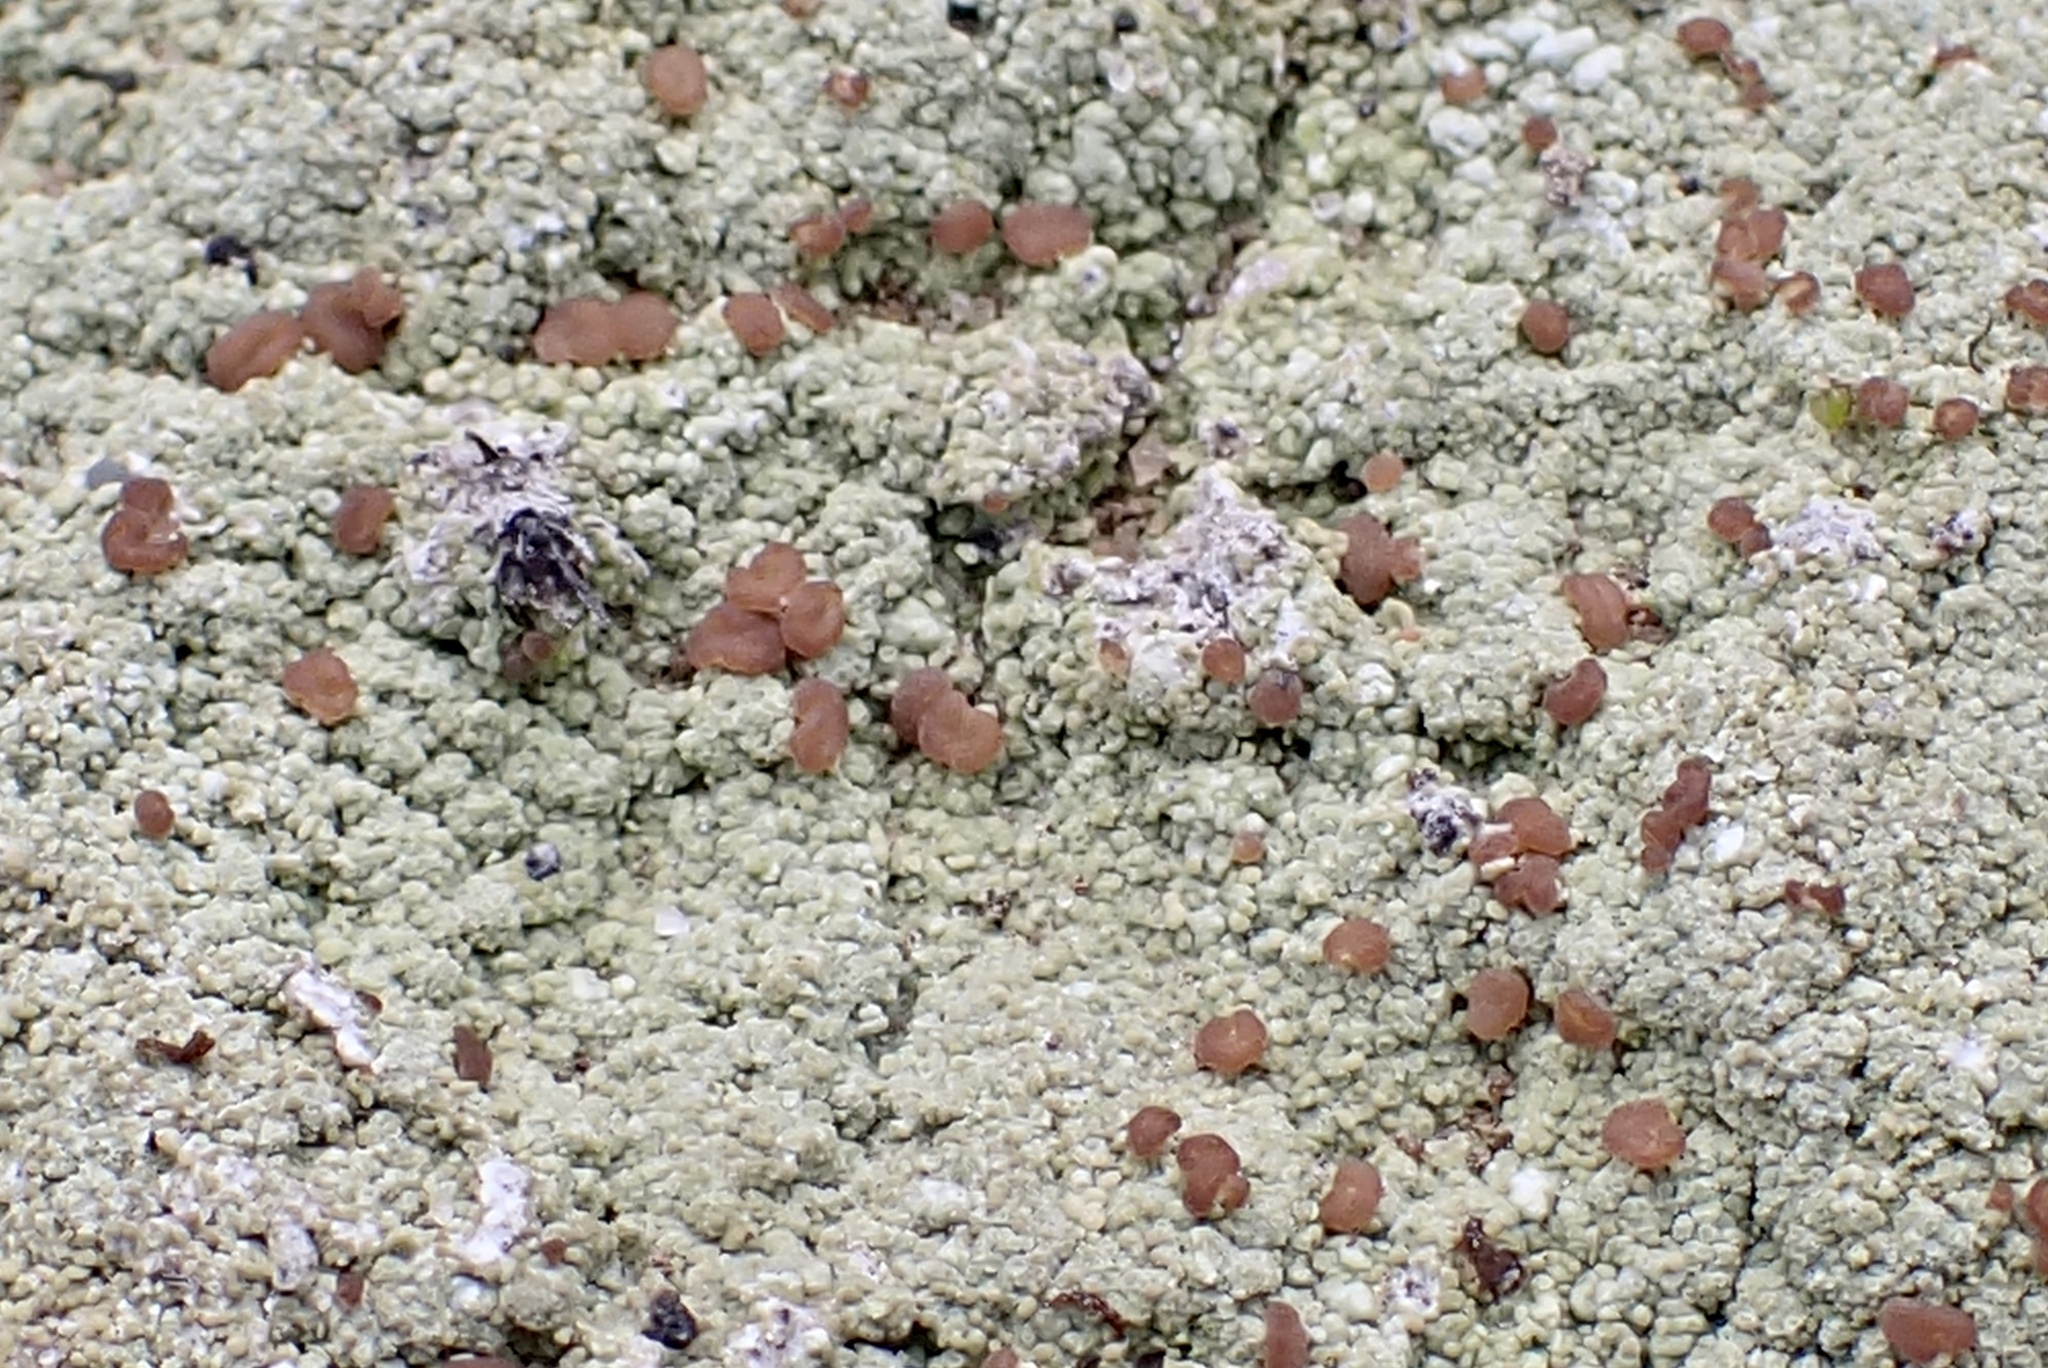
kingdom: Fungi
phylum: Ascomycota
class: Lecanoromycetes
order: Baeomycetales
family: Baeomycetaceae
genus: Baeomyces
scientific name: Baeomyces rufus
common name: Brown beret lichen
